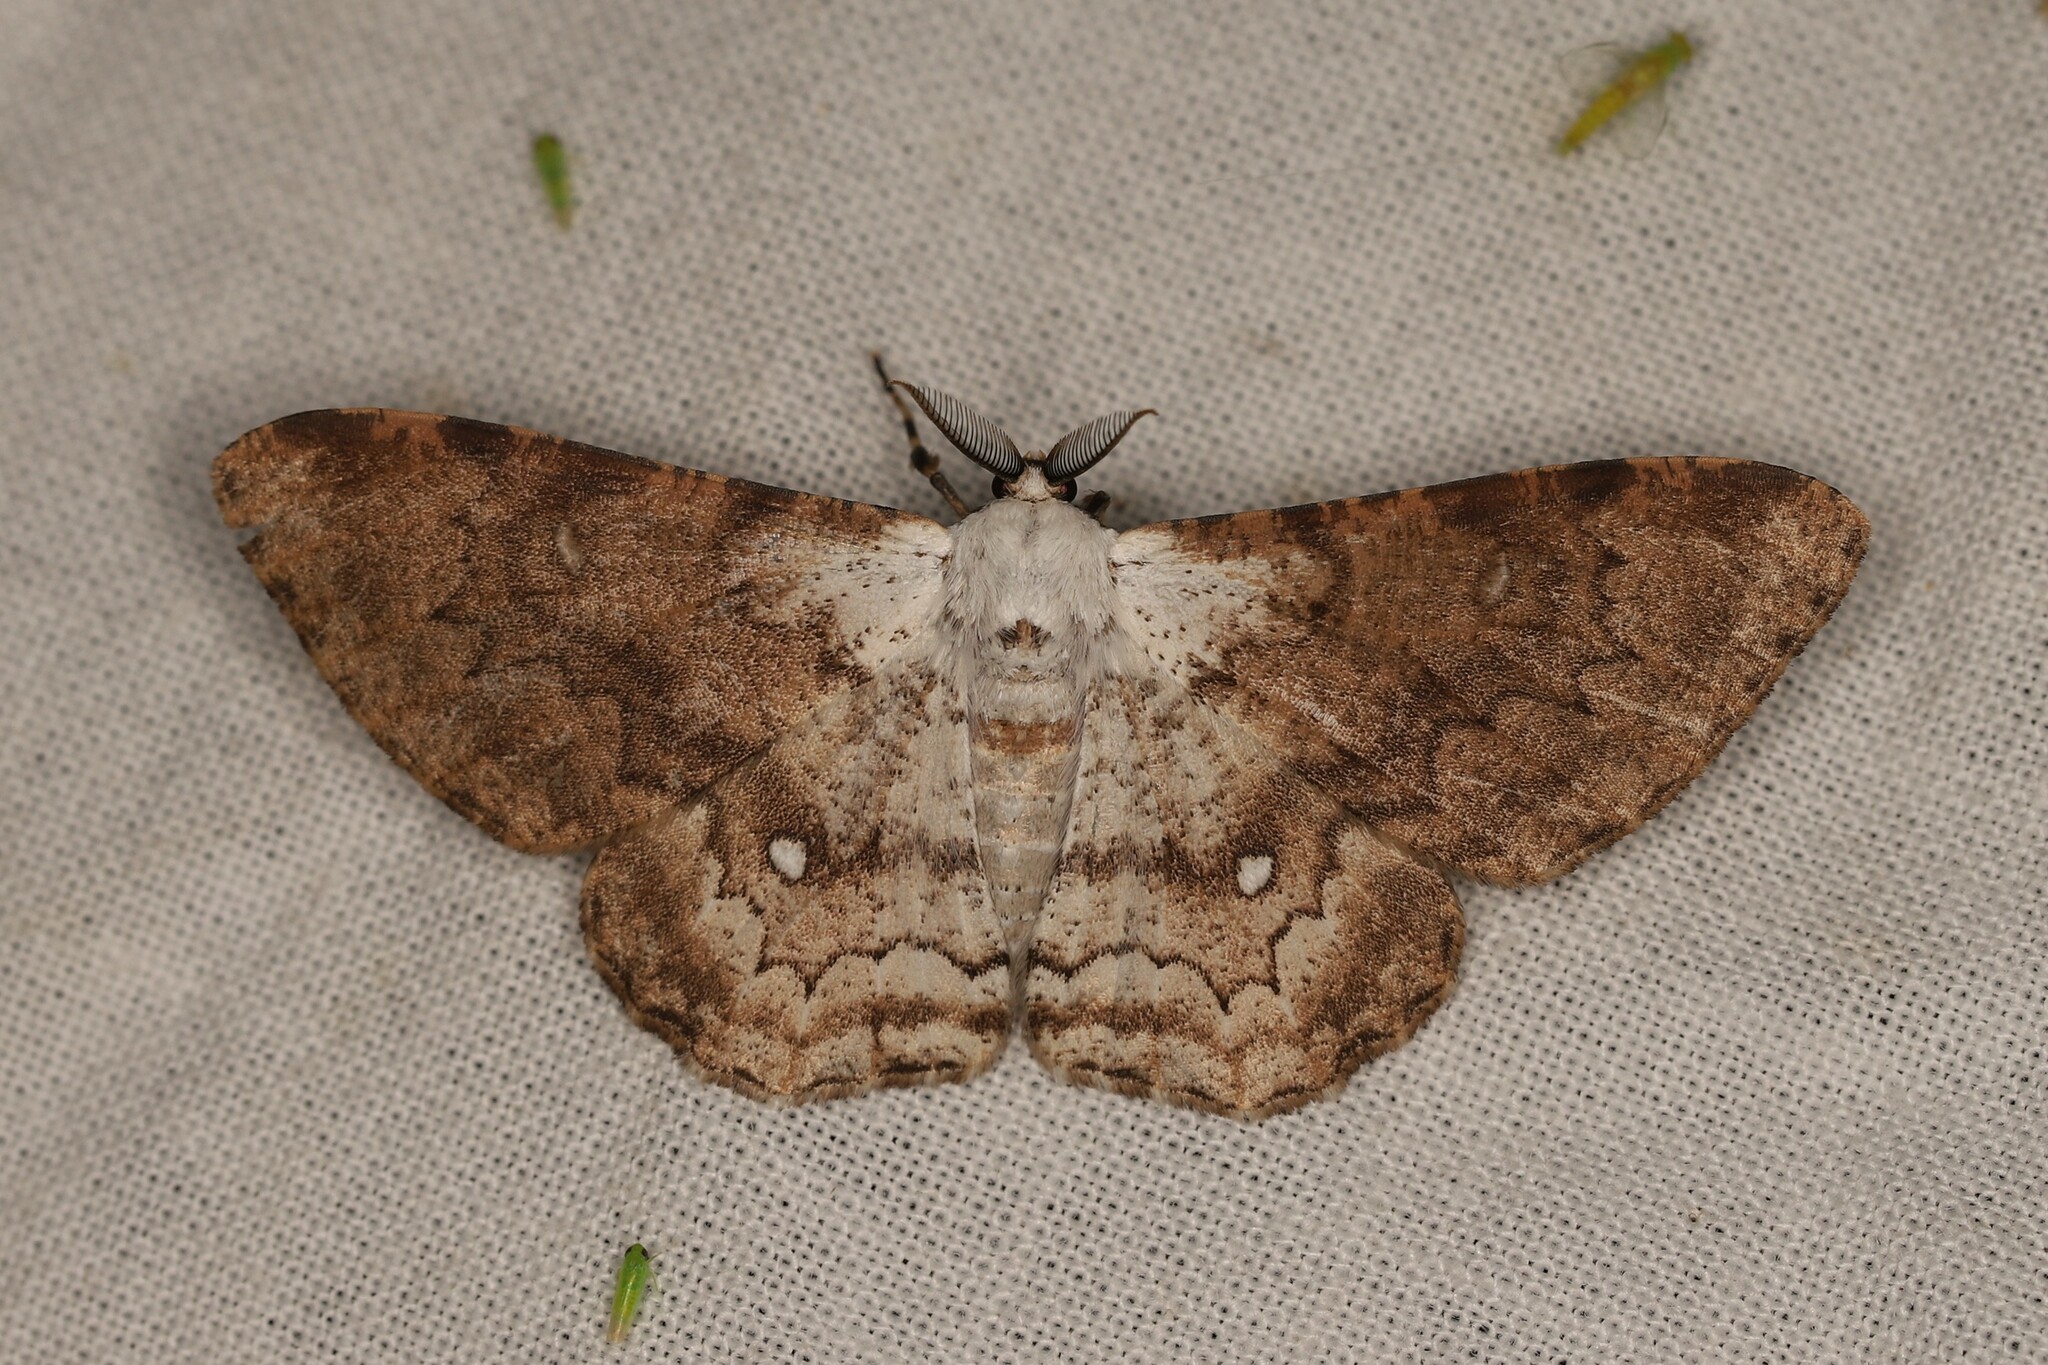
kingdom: Animalia
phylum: Arthropoda
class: Insecta
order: Lepidoptera
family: Geometridae
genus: Thyrinteina
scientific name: Thyrinteina arnobia
